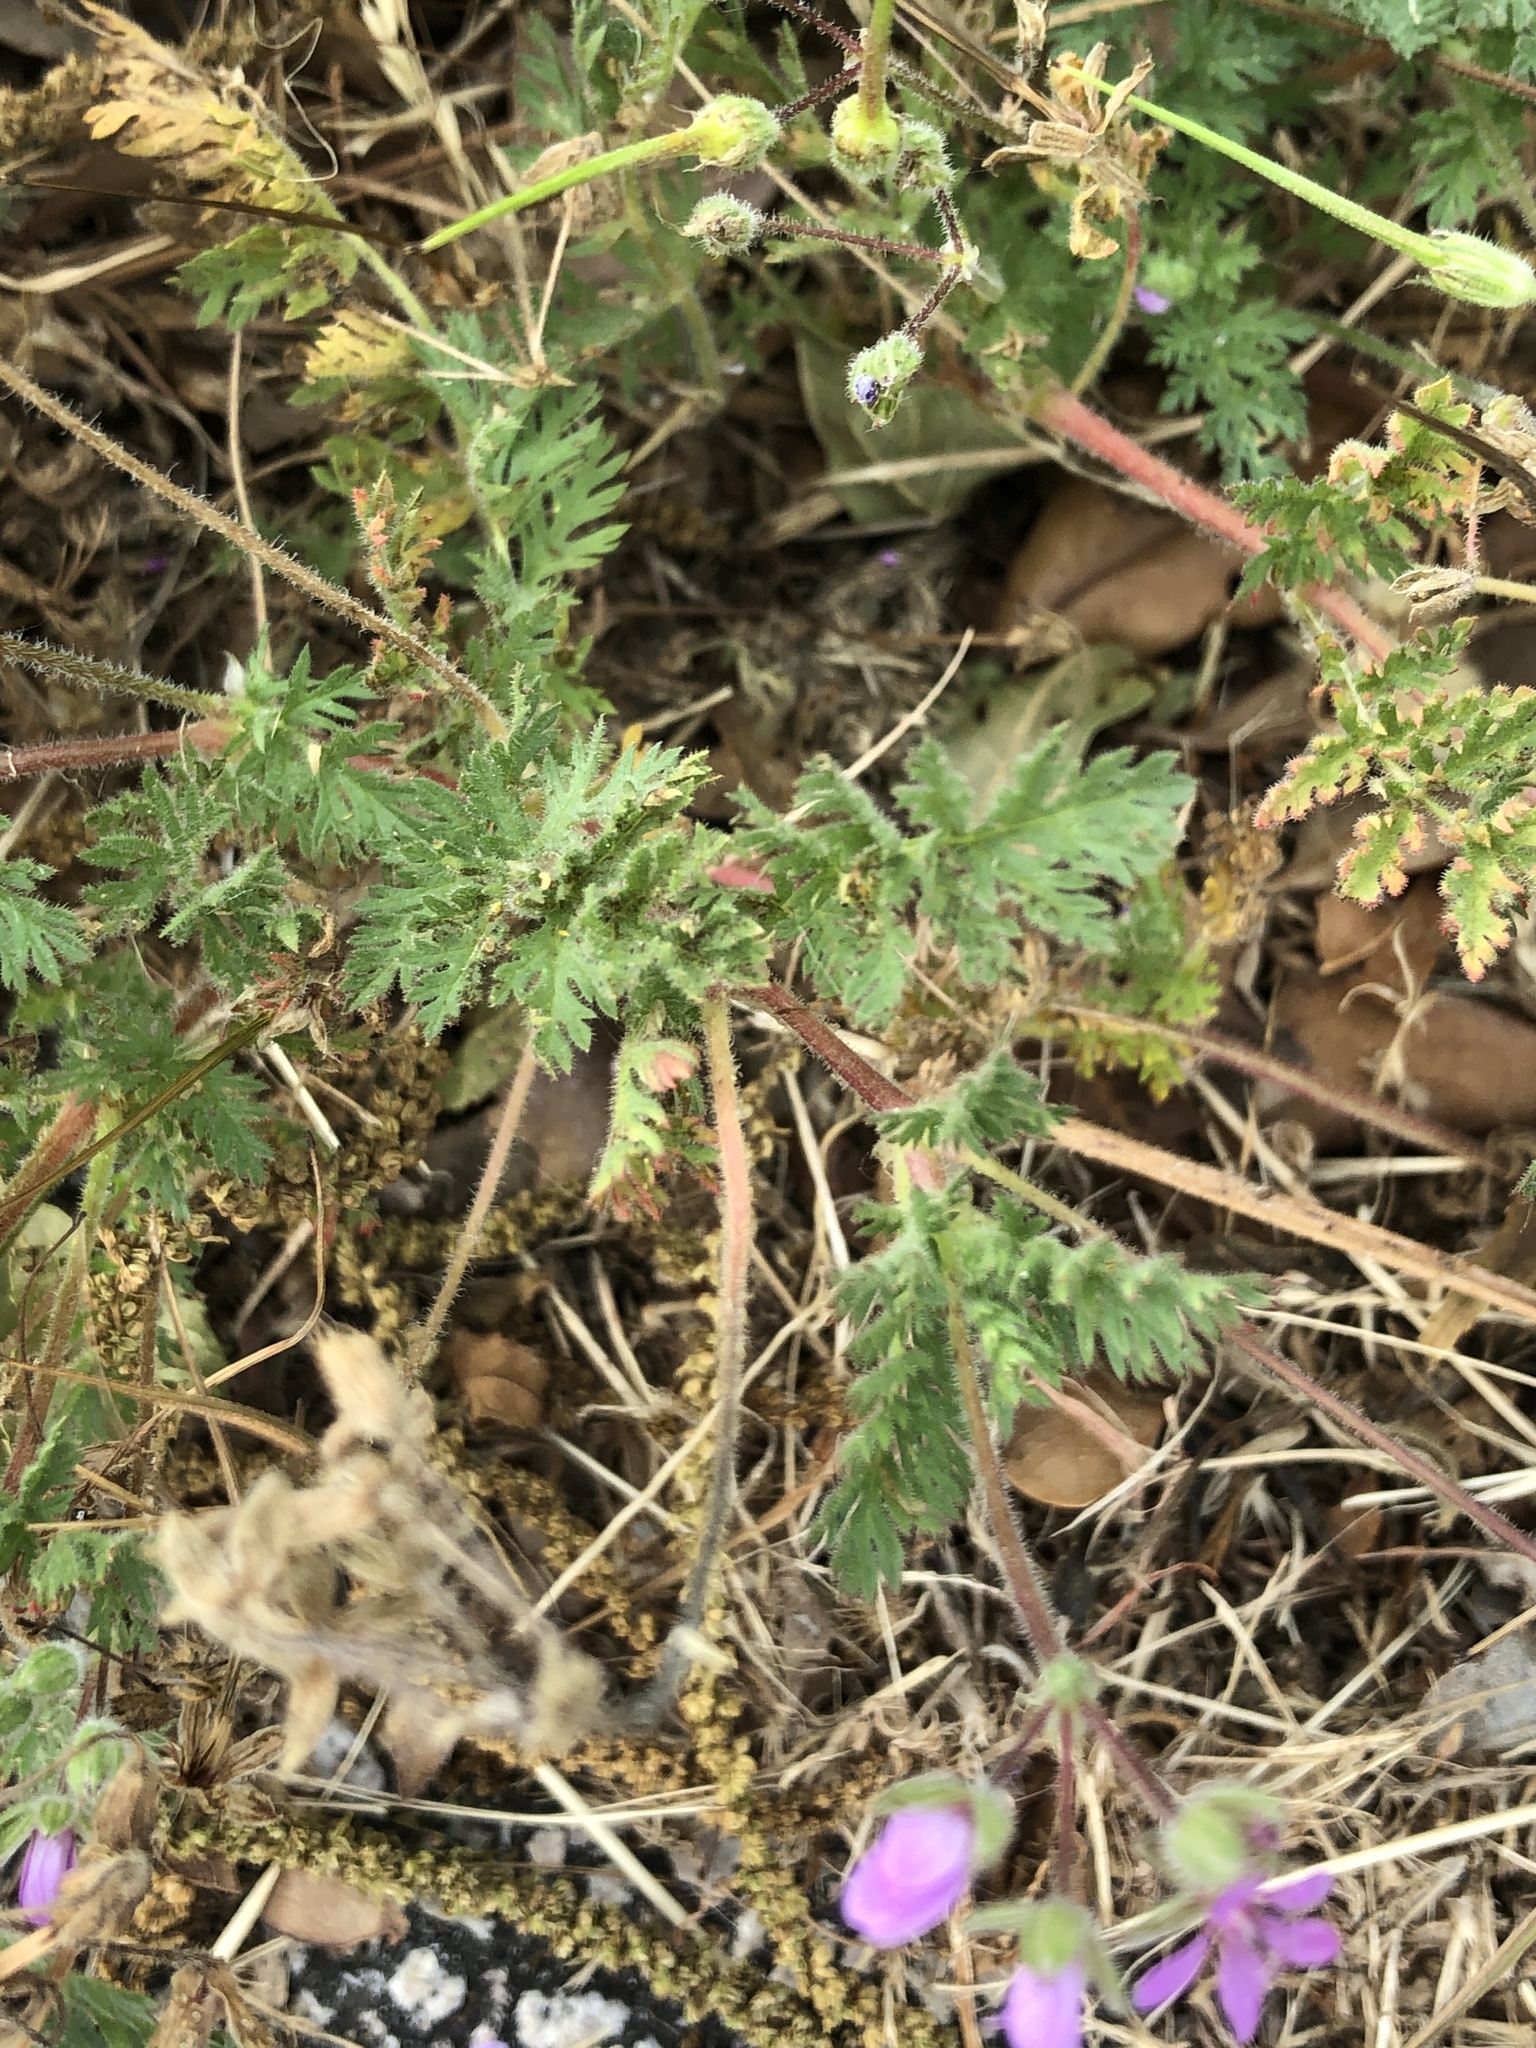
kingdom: Plantae
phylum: Tracheophyta
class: Magnoliopsida
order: Geraniales
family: Geraniaceae
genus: Erodium
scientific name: Erodium cicutarium
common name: Common stork's-bill
